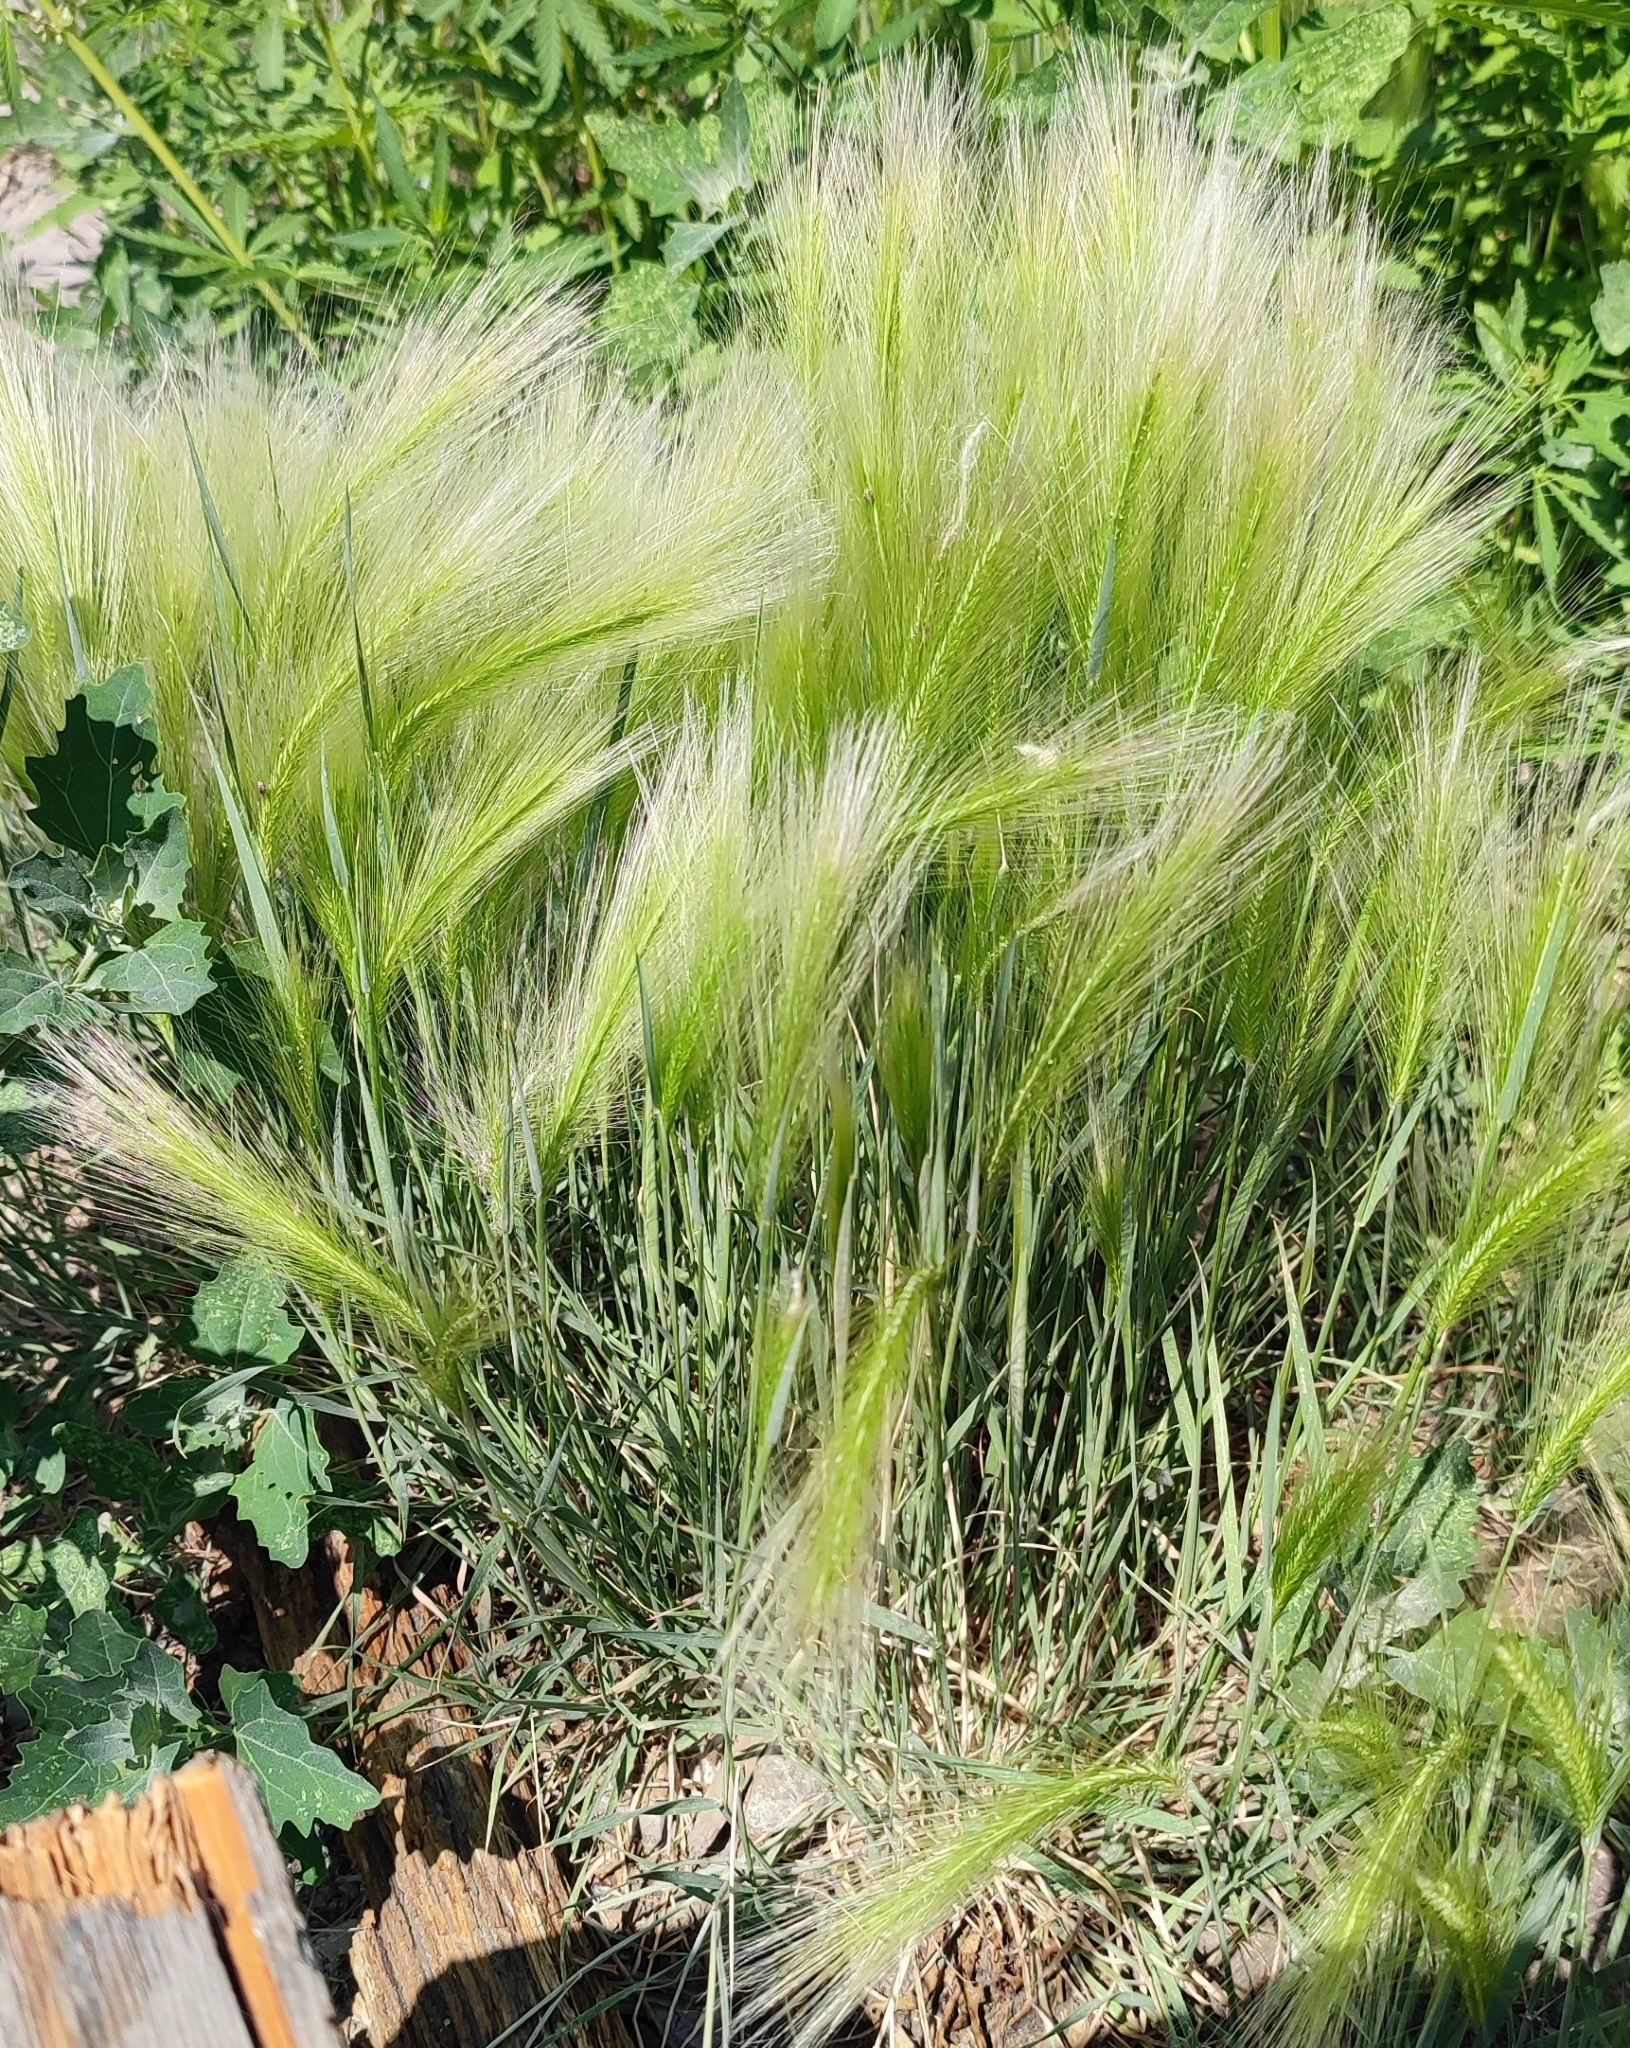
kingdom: Plantae
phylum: Tracheophyta
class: Liliopsida
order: Poales
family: Poaceae
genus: Hordeum
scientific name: Hordeum jubatum
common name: Foxtail barley
